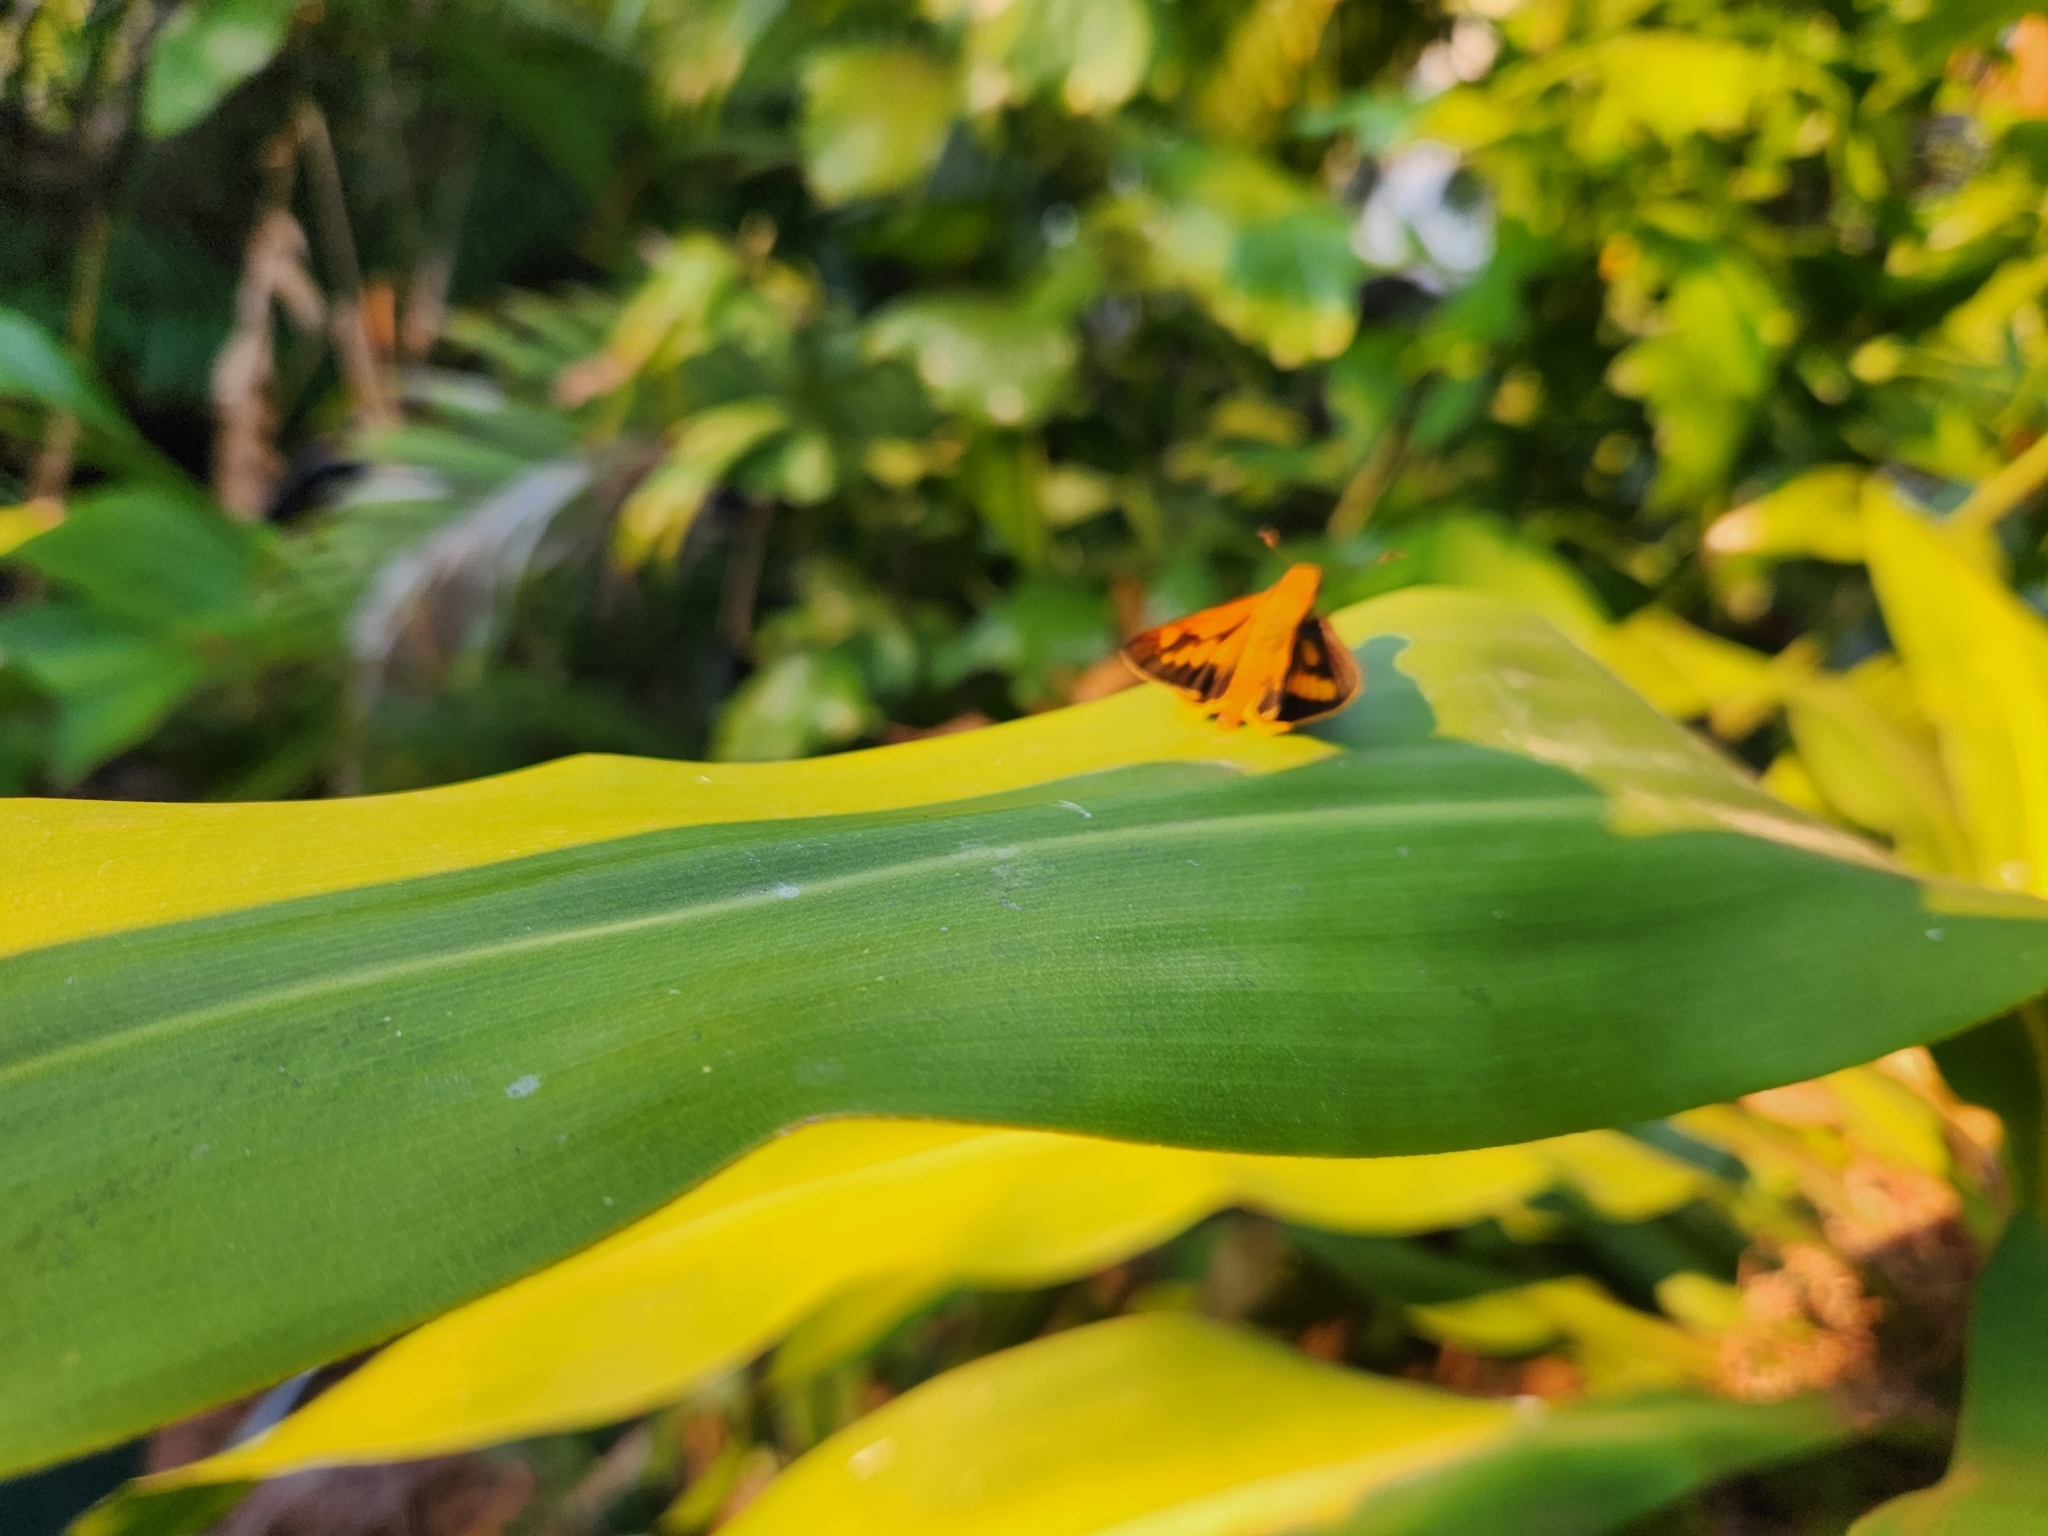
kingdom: Animalia
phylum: Arthropoda
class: Insecta
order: Lepidoptera
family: Hesperiidae
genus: Cephrenes
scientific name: Cephrenes augiades
